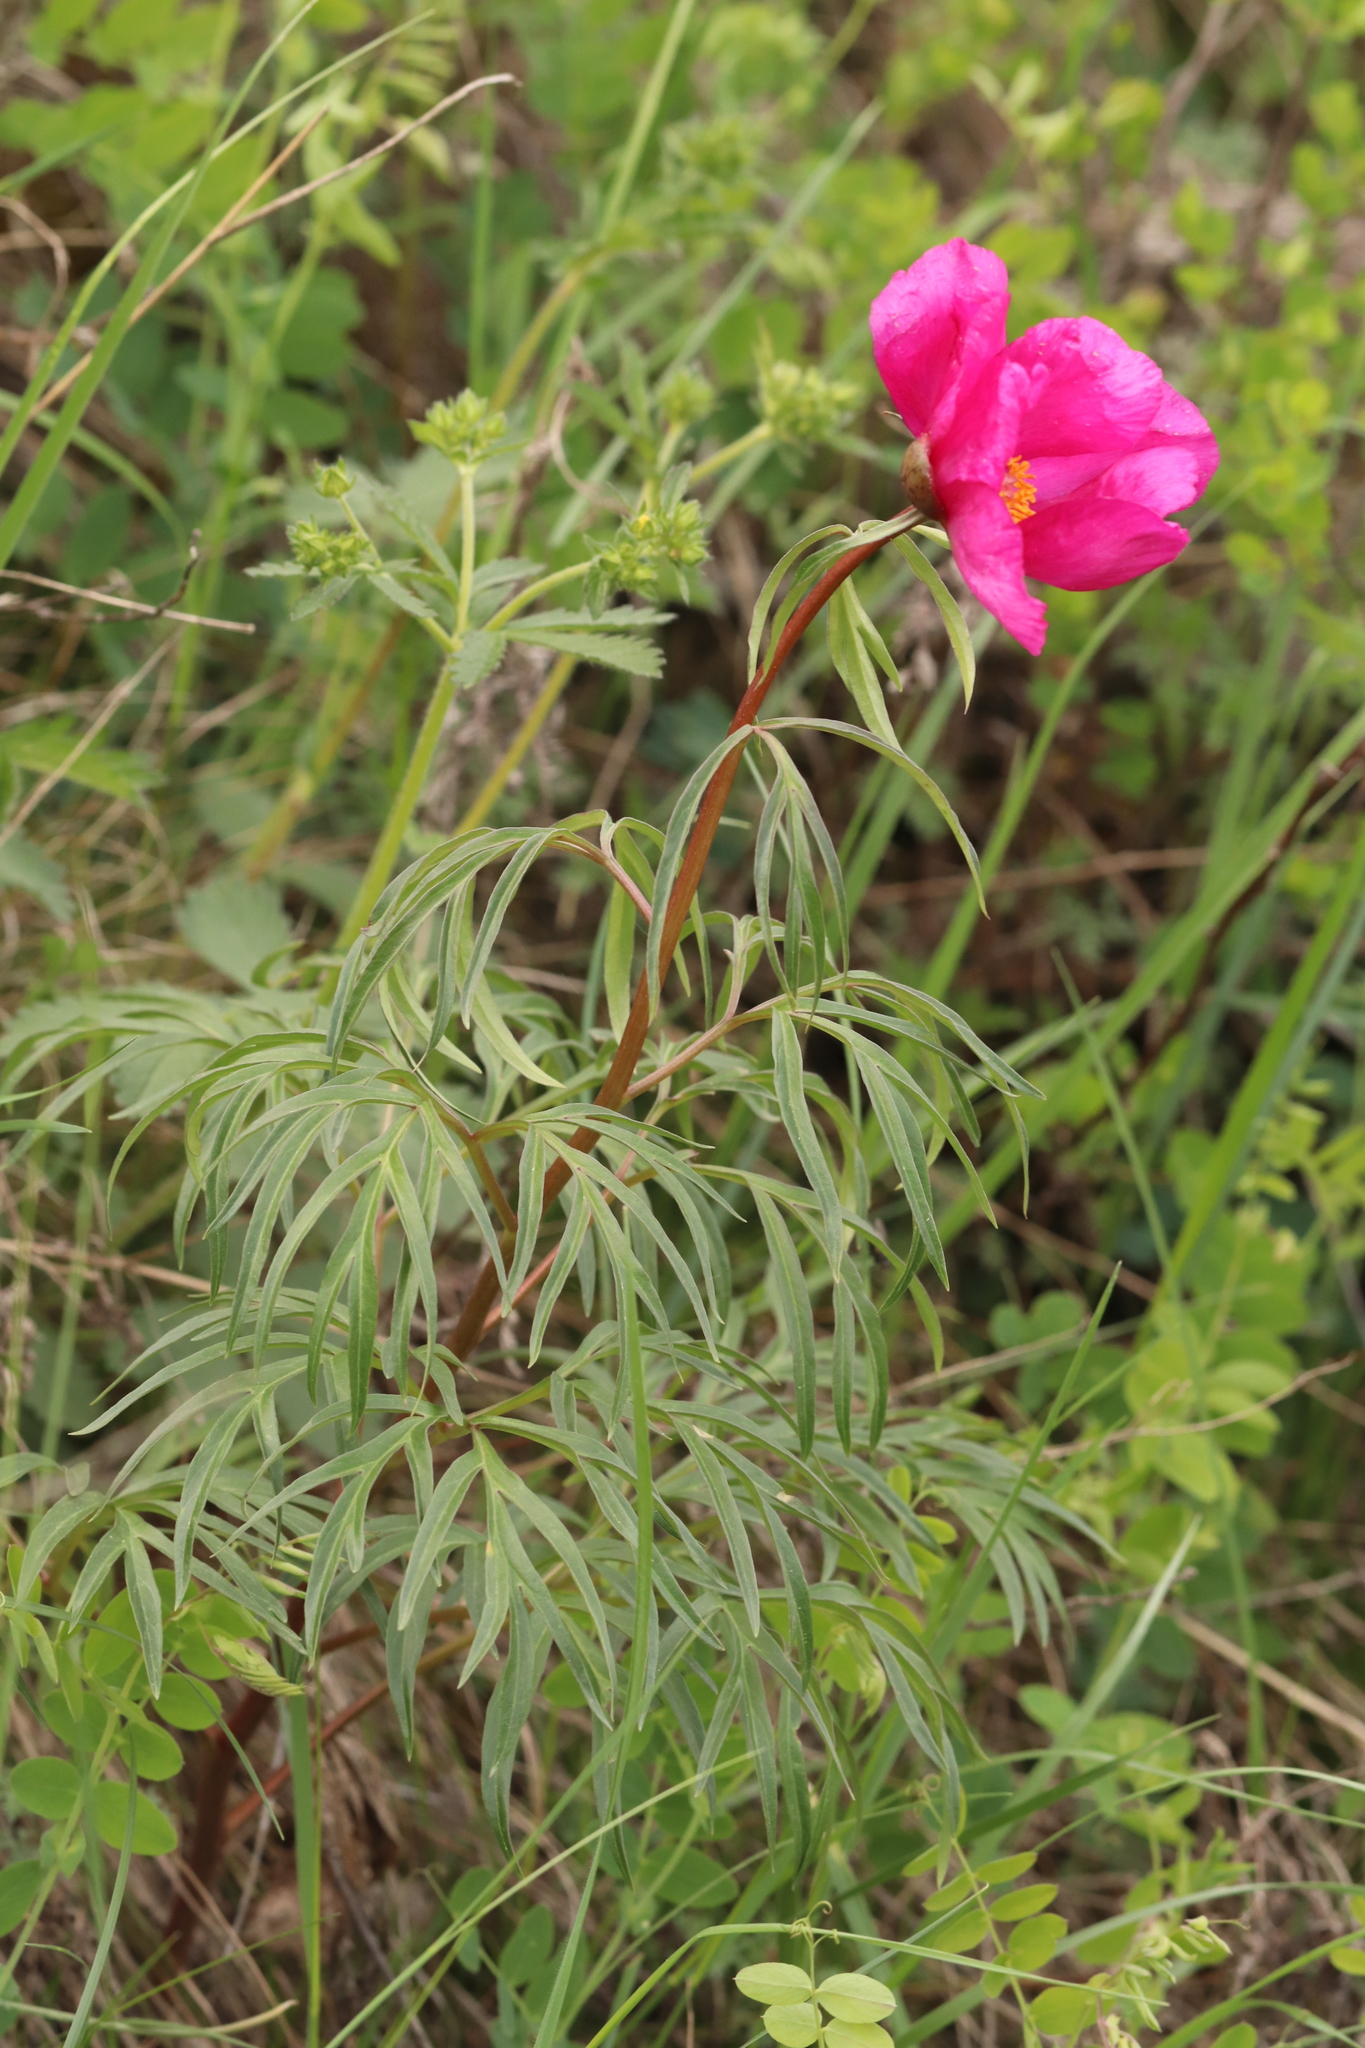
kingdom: Plantae
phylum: Tracheophyta
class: Magnoliopsida
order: Saxifragales
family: Paeoniaceae
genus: Paeonia
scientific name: Paeonia
